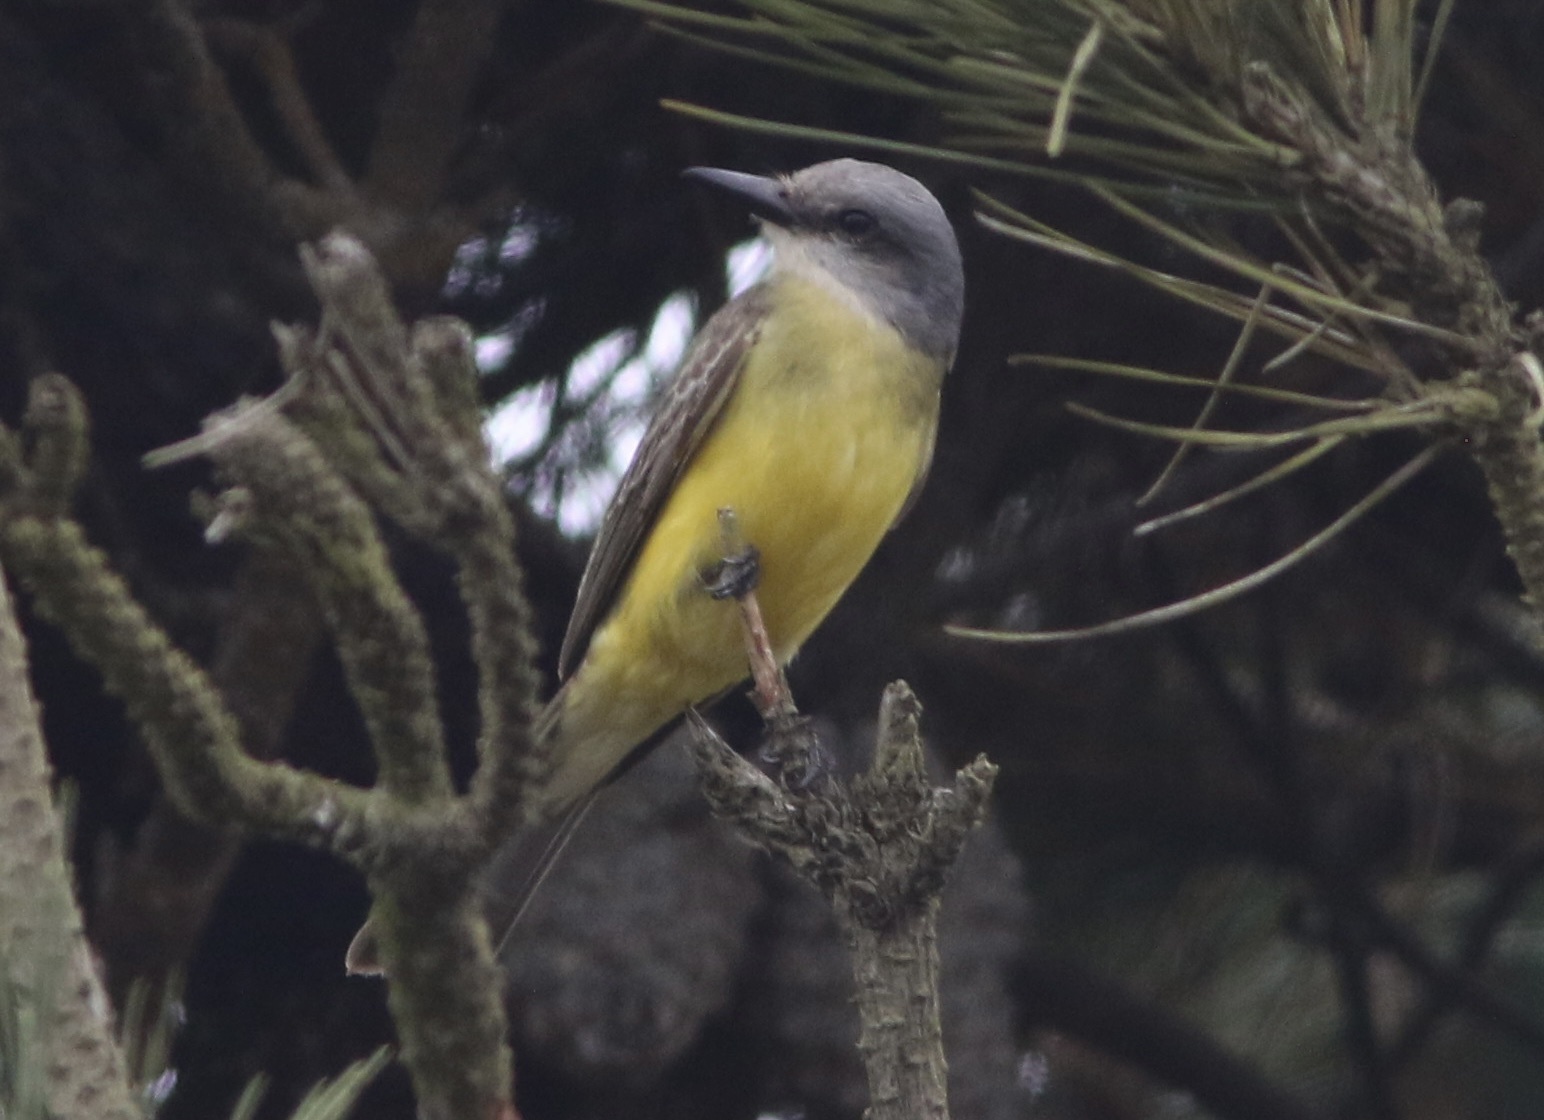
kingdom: Animalia
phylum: Chordata
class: Aves
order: Passeriformes
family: Tyrannidae
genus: Tyrannus
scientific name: Tyrannus melancholicus
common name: Tropical kingbird
